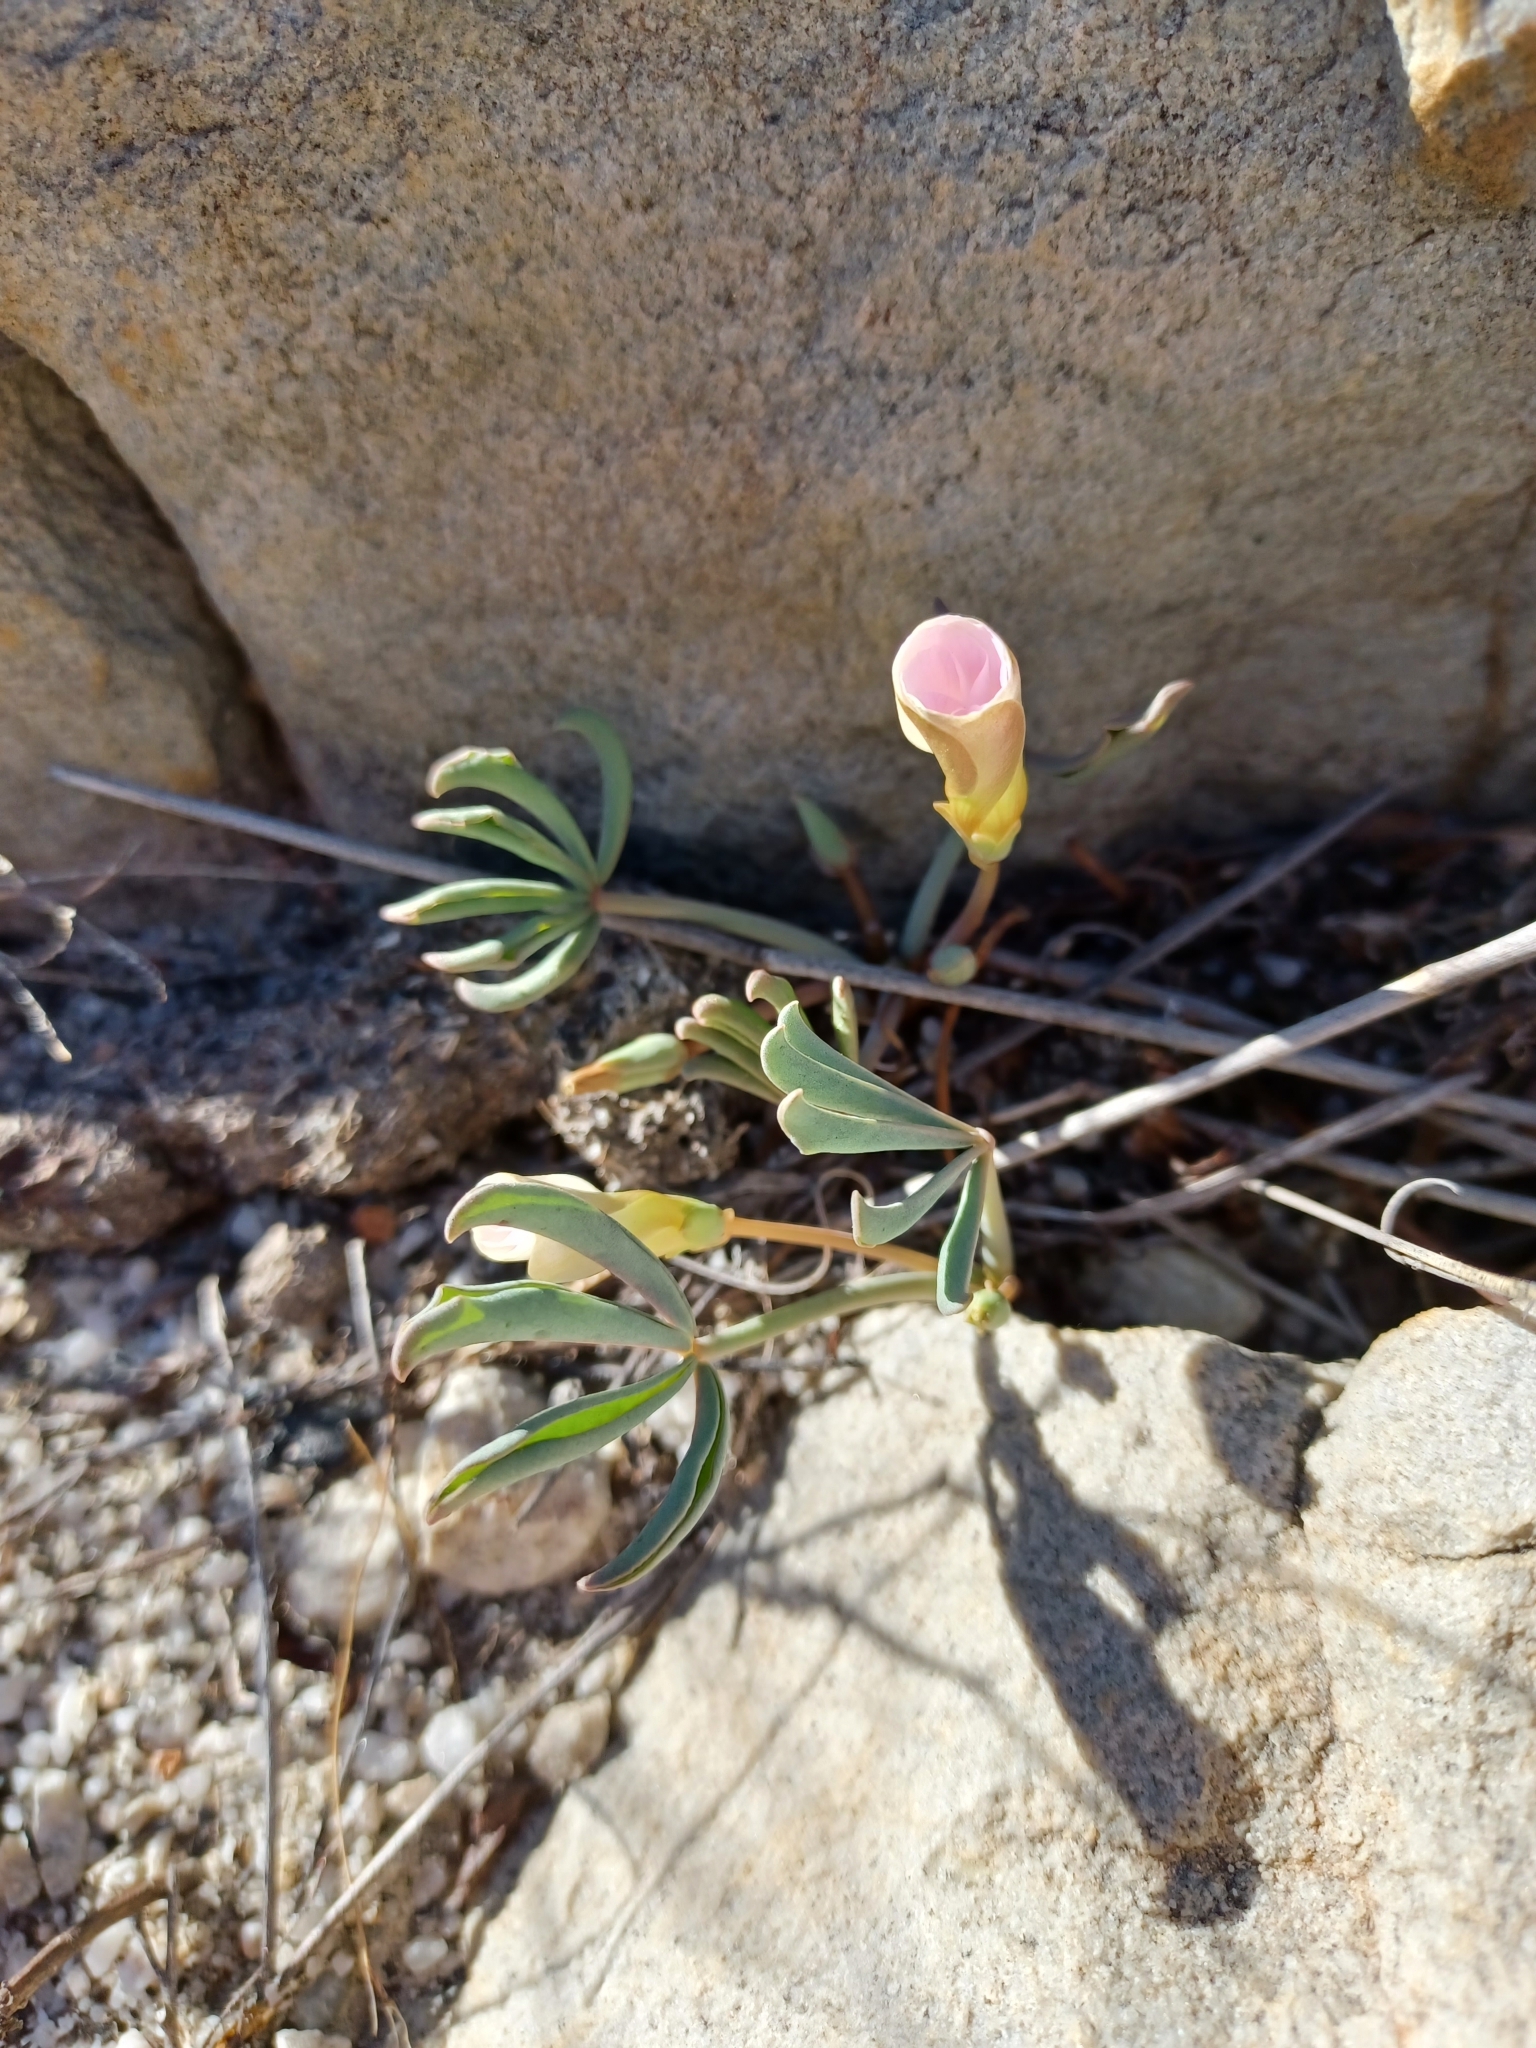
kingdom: Plantae
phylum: Tracheophyta
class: Magnoliopsida
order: Oxalidales
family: Oxalidaceae
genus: Oxalis
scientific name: Oxalis flava
